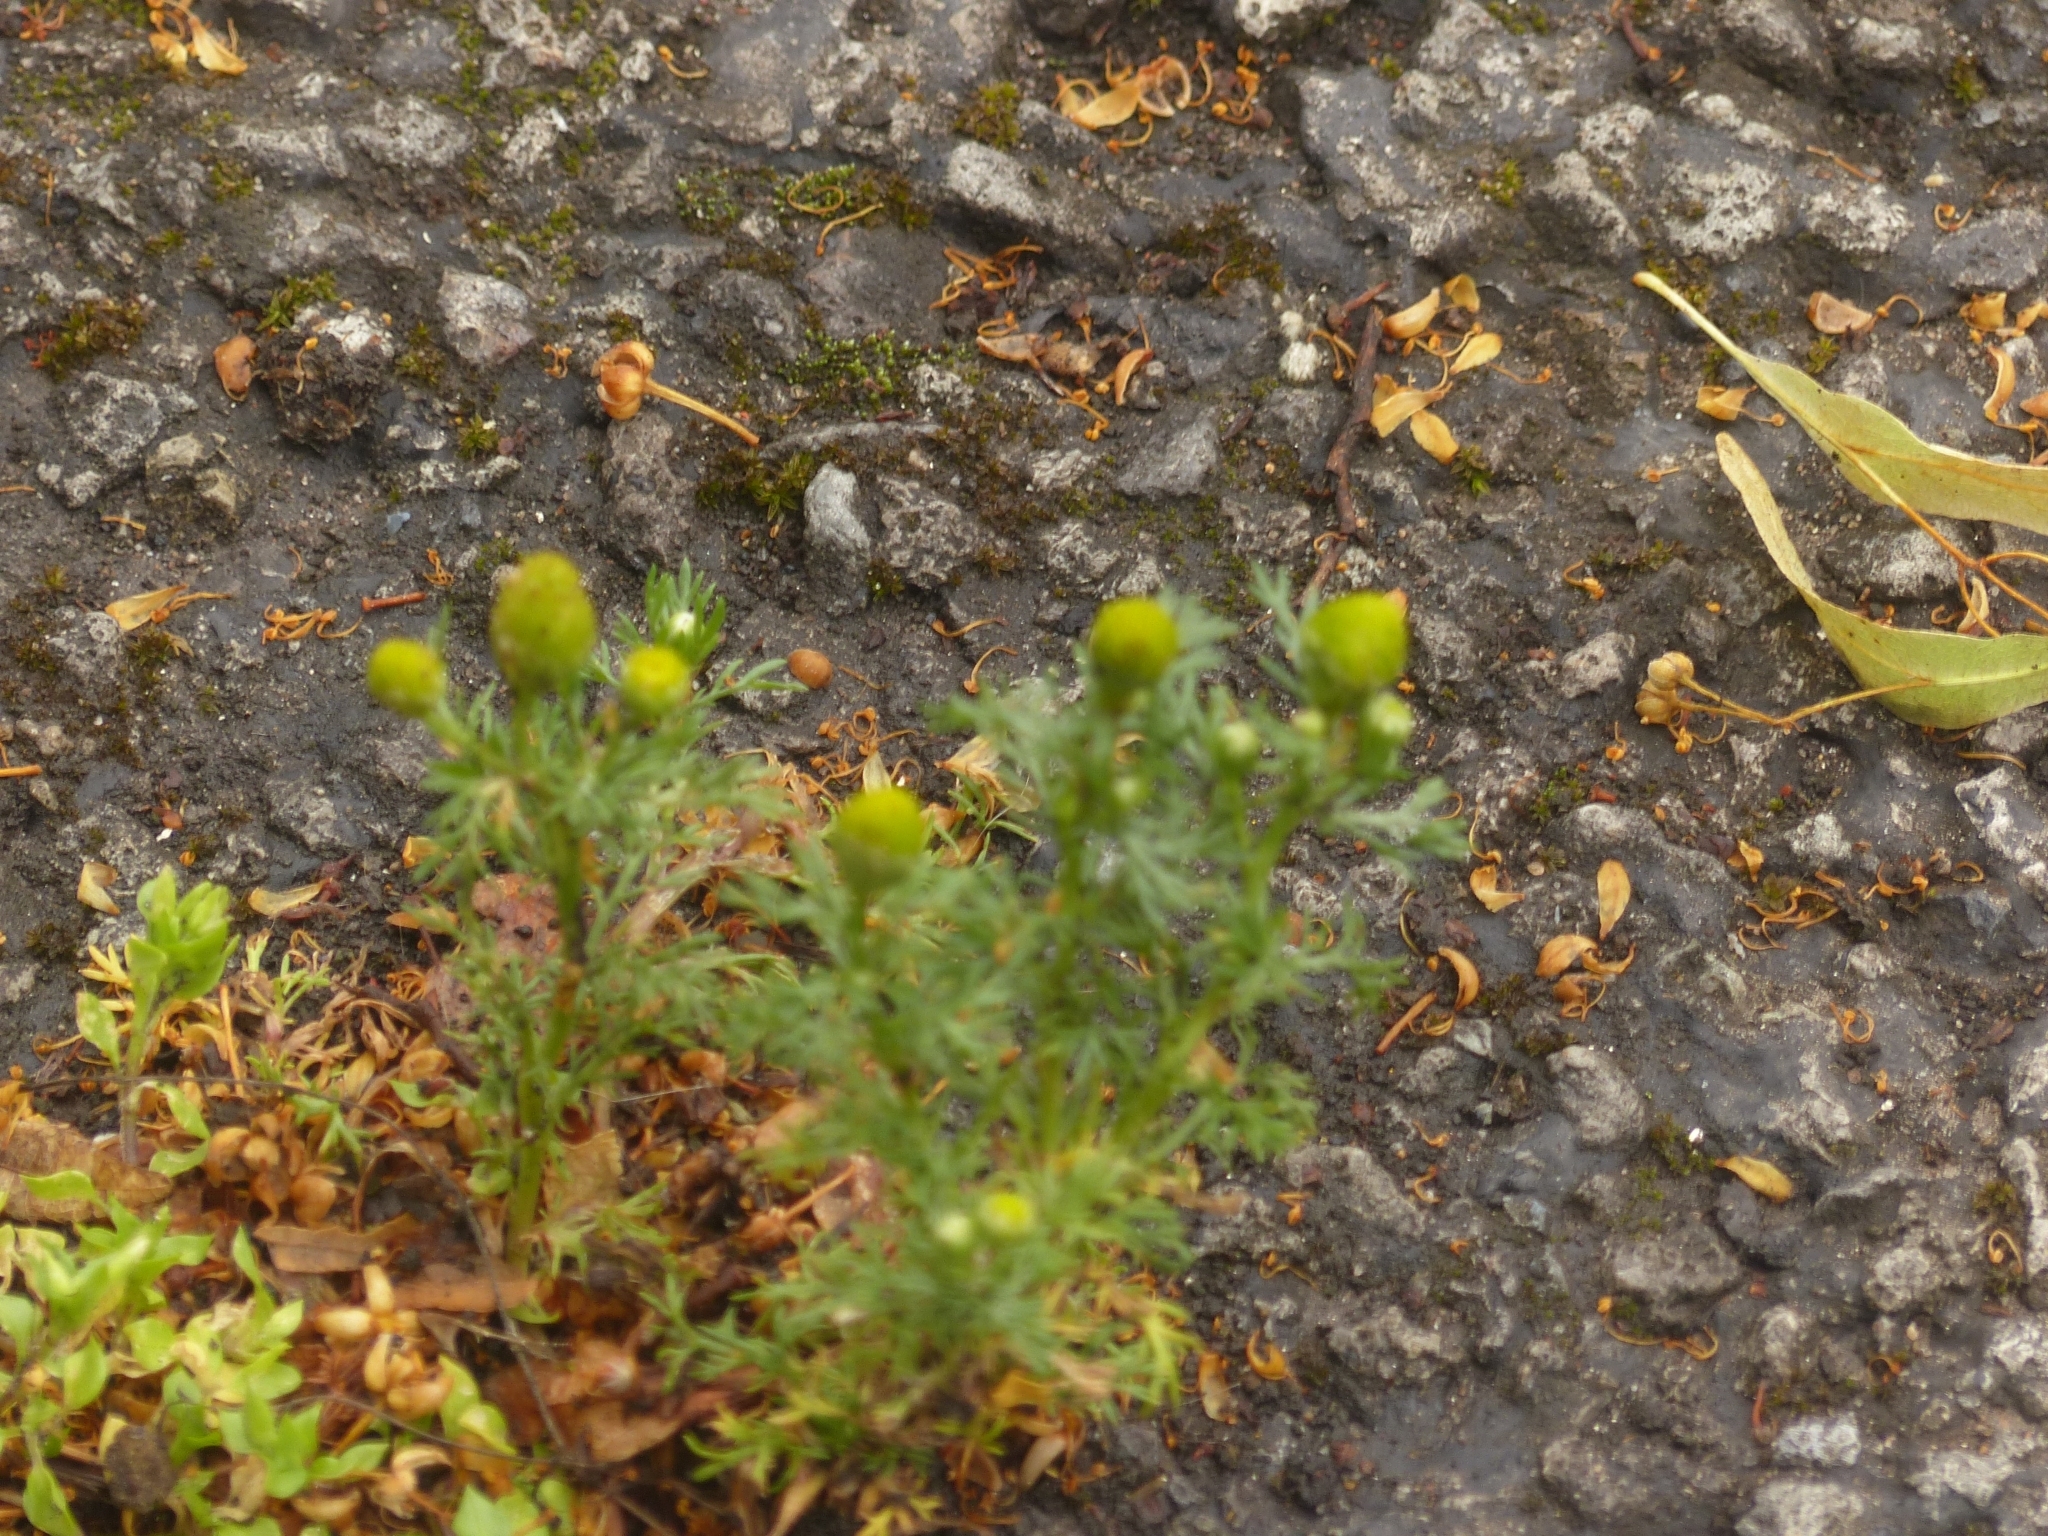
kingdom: Plantae
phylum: Tracheophyta
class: Magnoliopsida
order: Asterales
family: Asteraceae
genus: Matricaria
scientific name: Matricaria discoidea
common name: Disc mayweed
